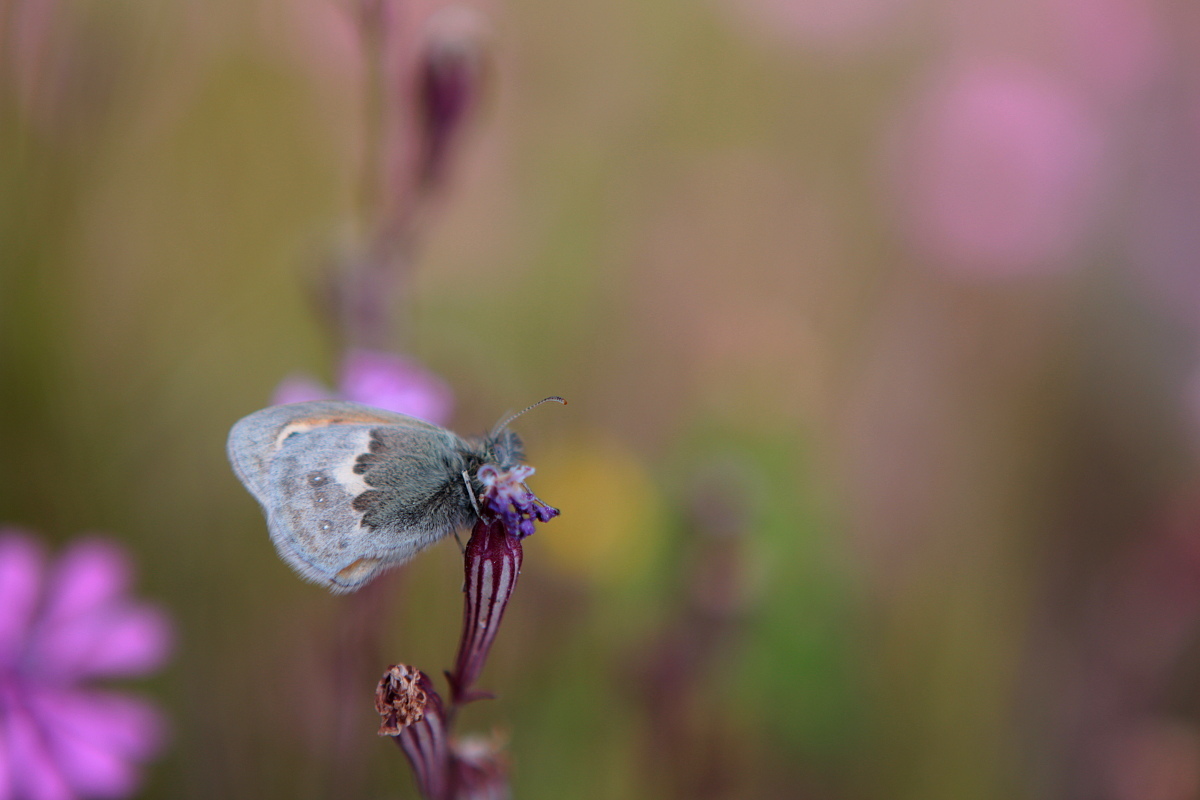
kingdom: Animalia
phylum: Arthropoda
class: Insecta
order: Lepidoptera
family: Nymphalidae
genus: Coenonympha
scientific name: Coenonympha pamphilus
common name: Small heath
